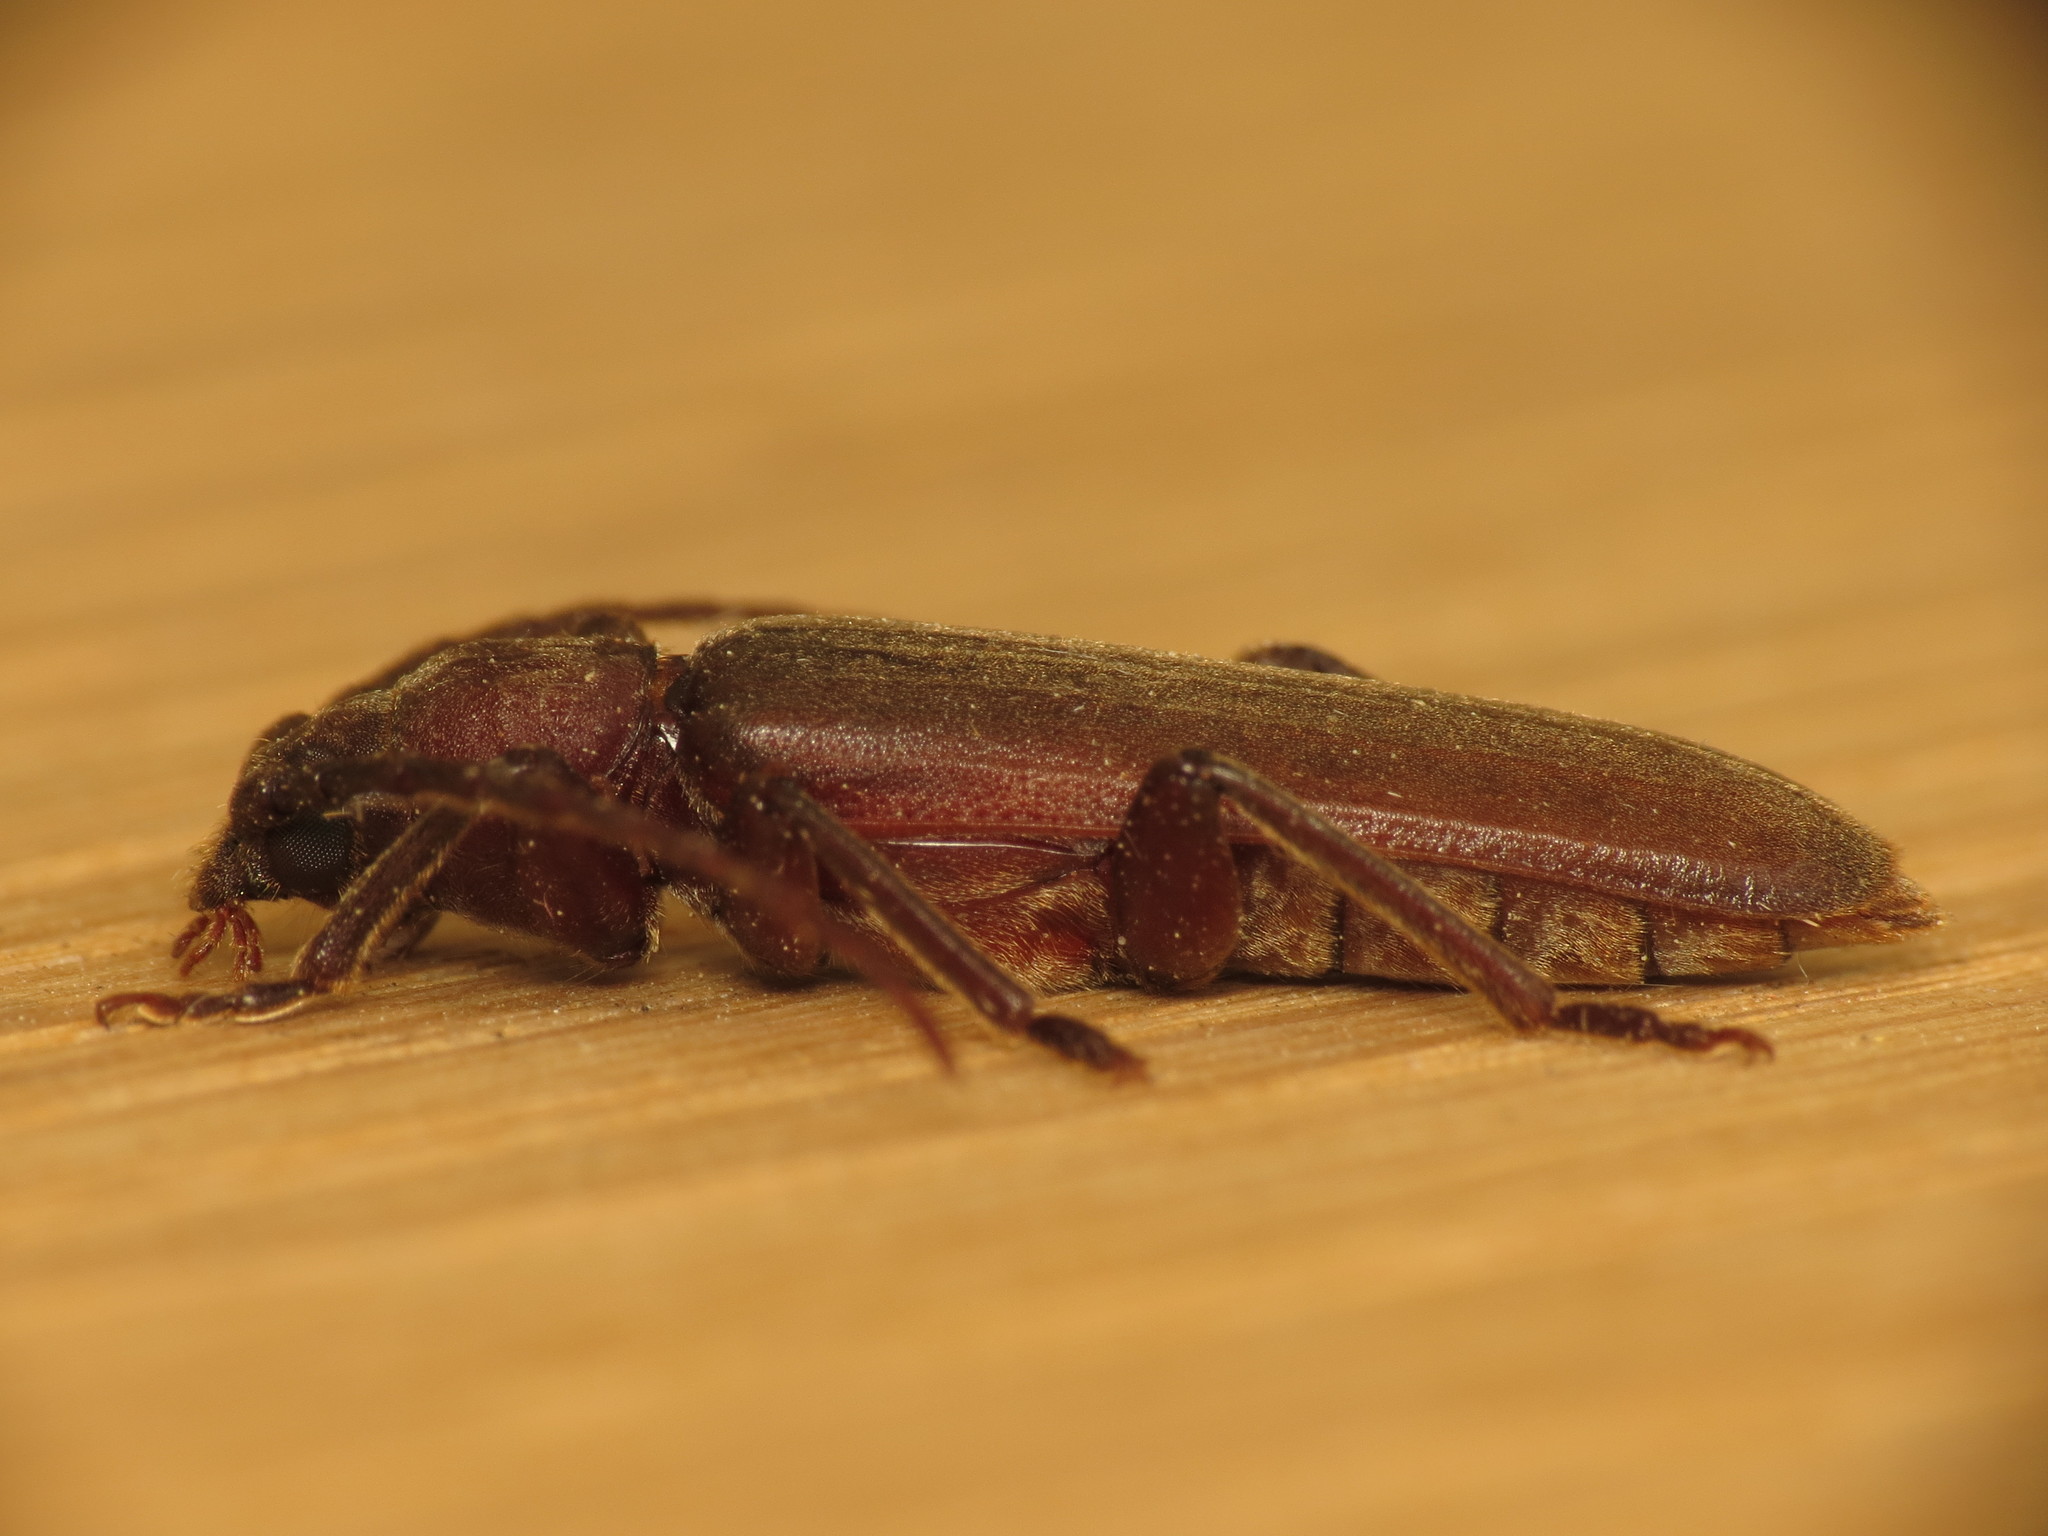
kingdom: Animalia
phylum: Arthropoda
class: Insecta
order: Coleoptera
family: Cerambycidae
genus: Arhopalus
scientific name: Arhopalus rusticus
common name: Rust pine borer
